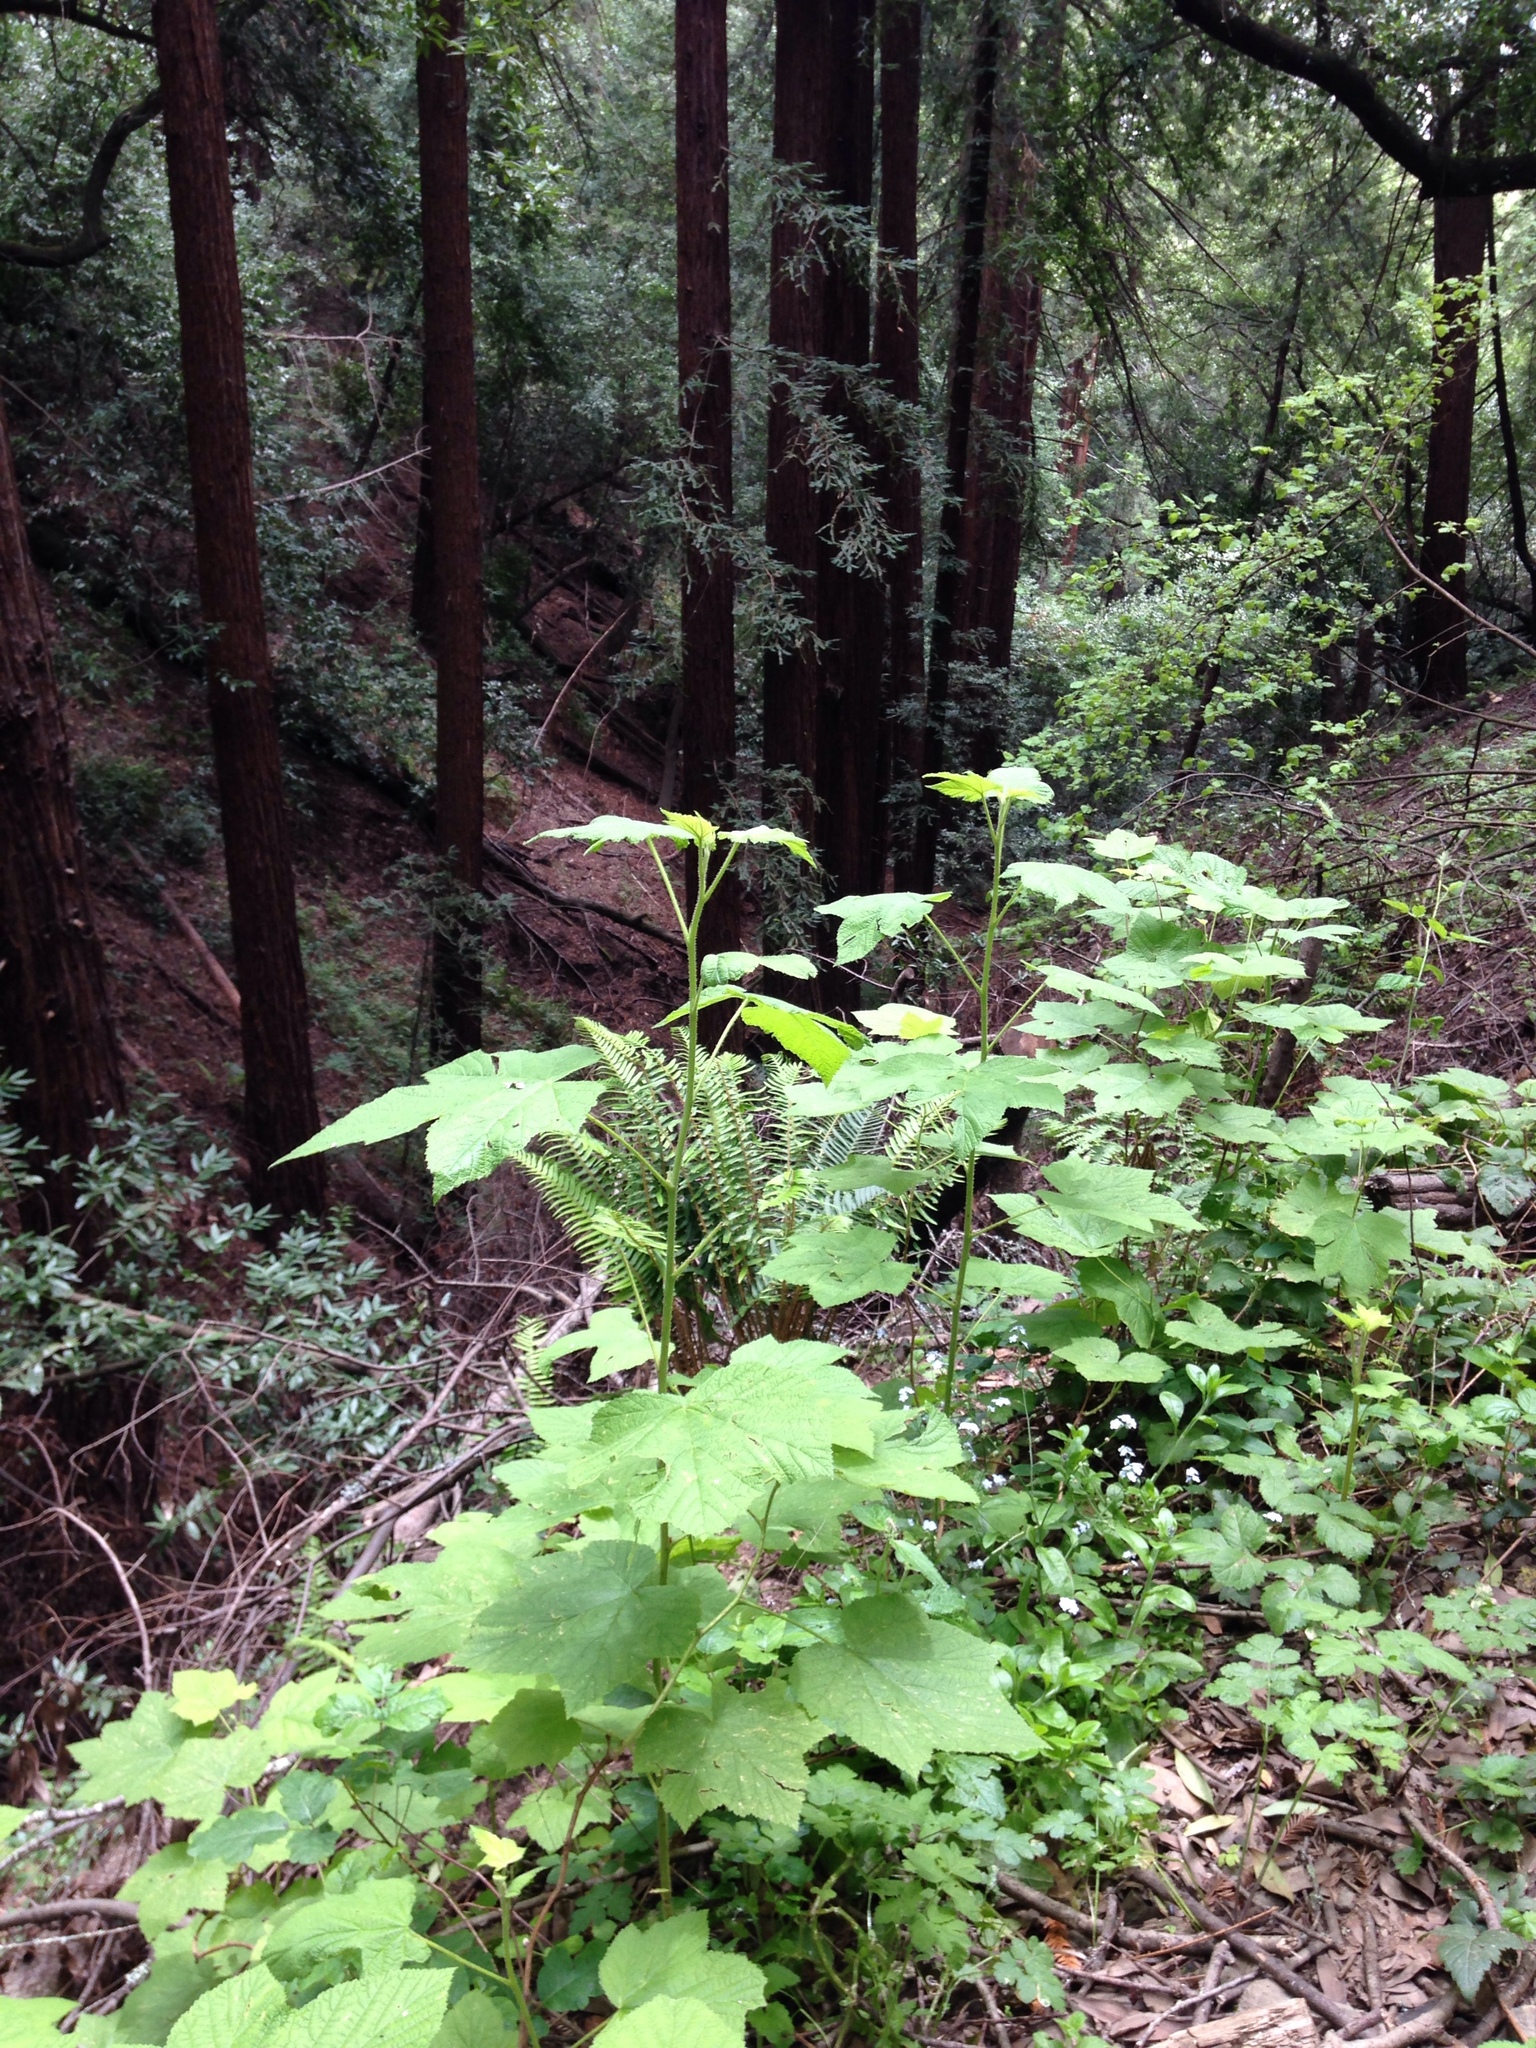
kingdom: Plantae
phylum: Tracheophyta
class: Magnoliopsida
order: Rosales
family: Rosaceae
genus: Rubus
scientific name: Rubus parviflorus
